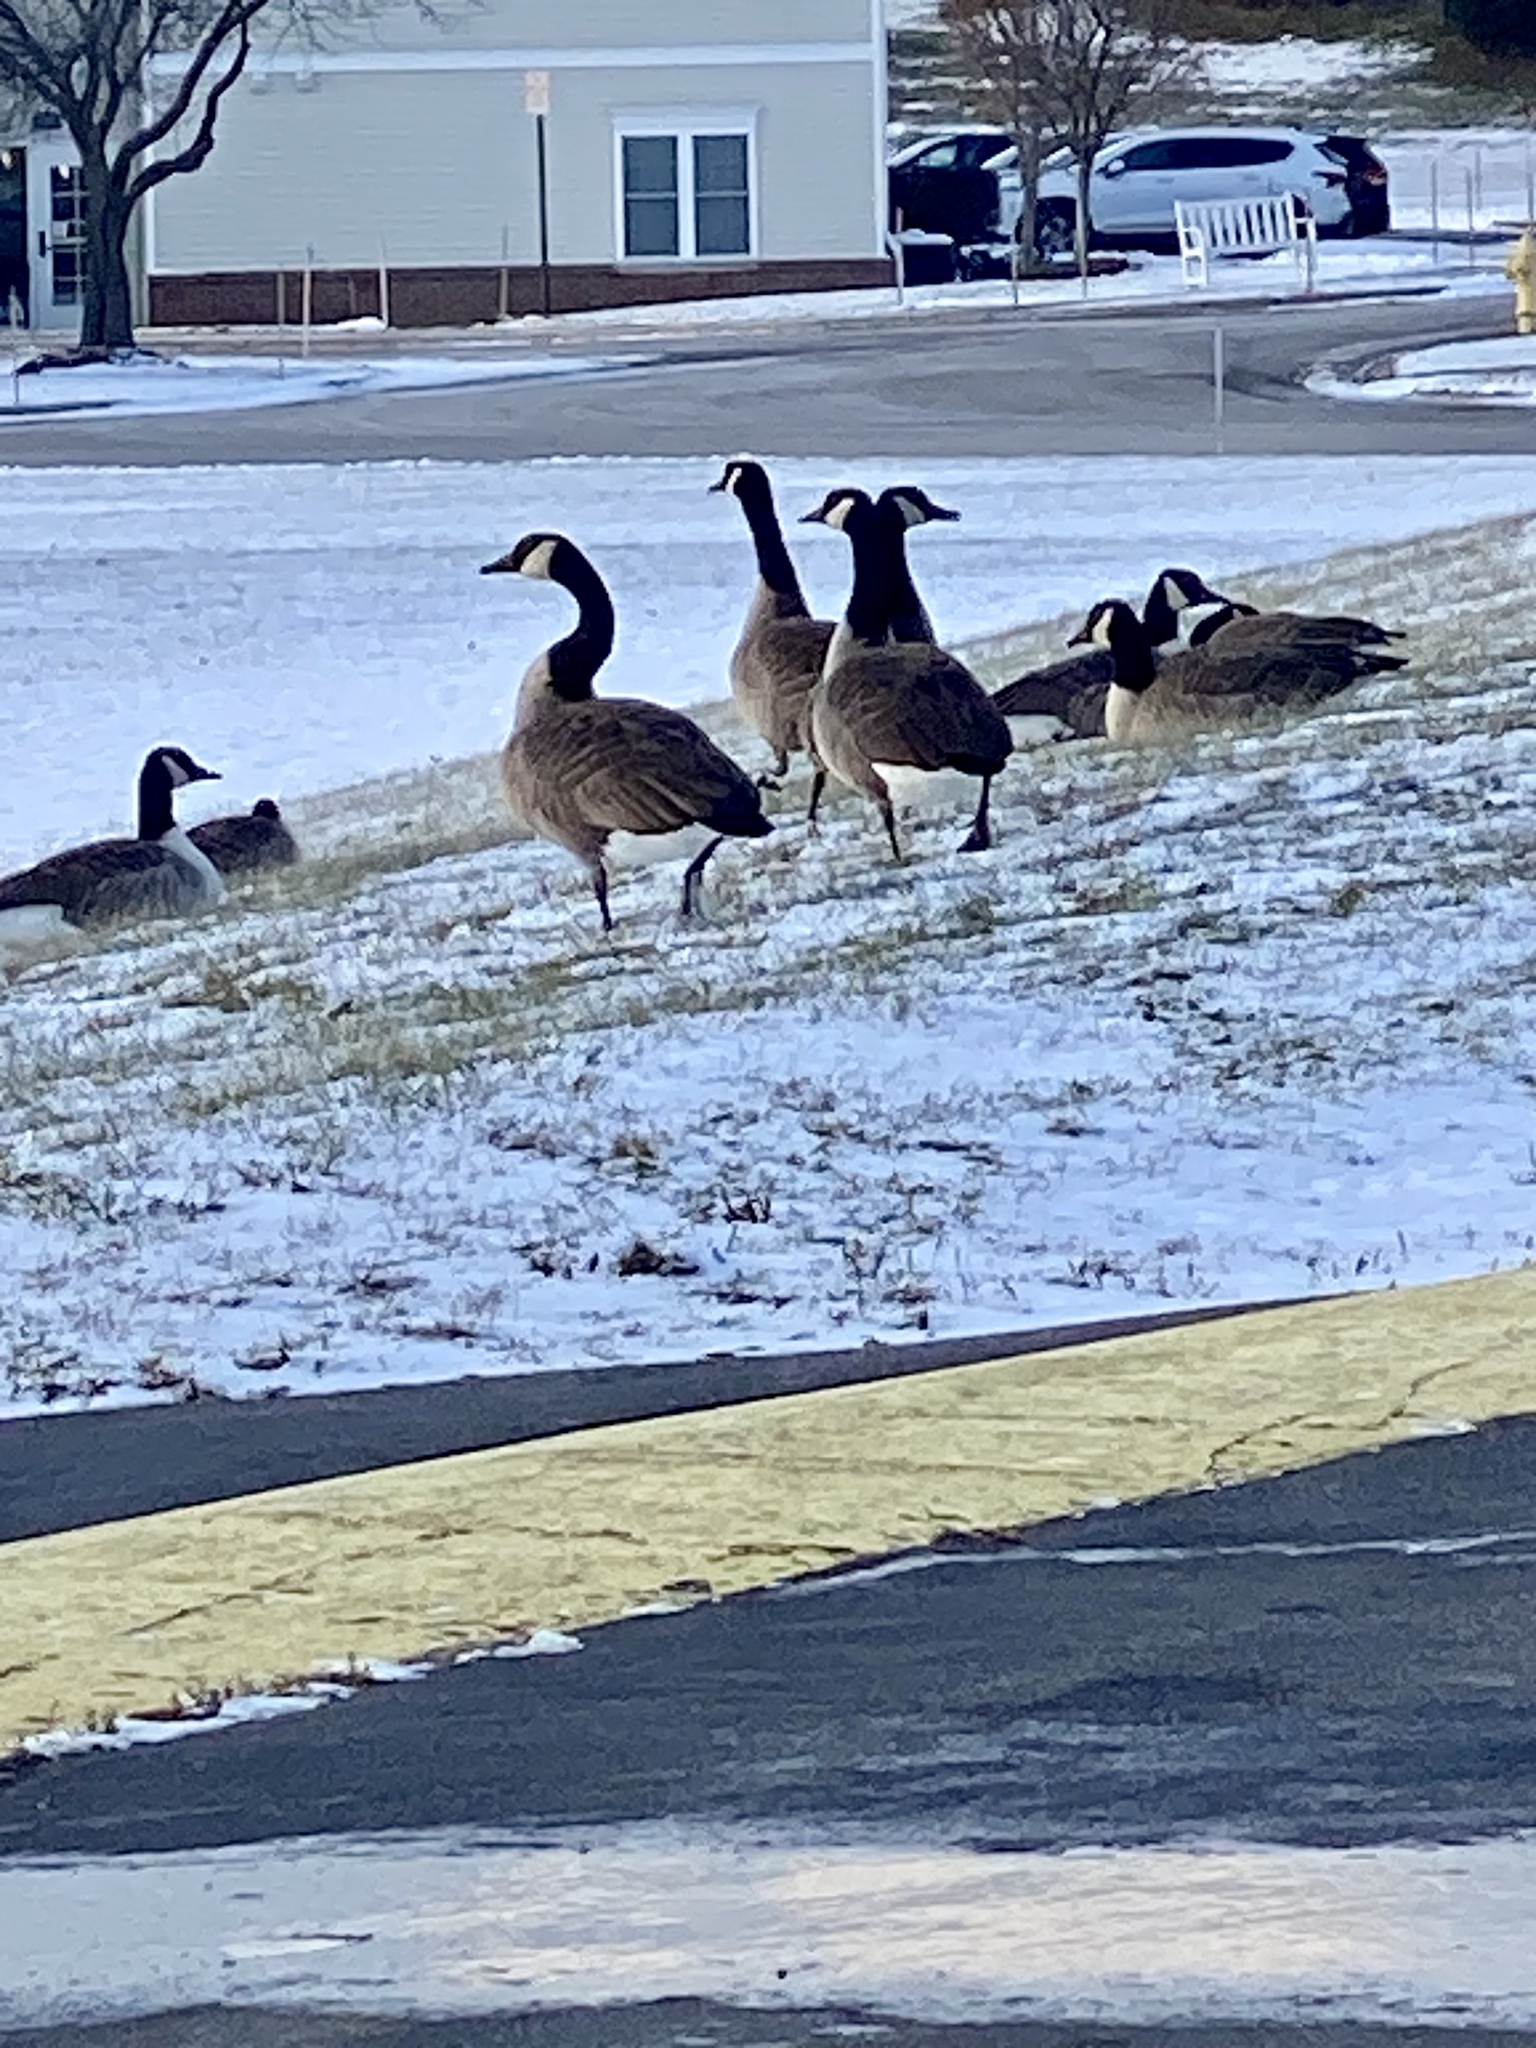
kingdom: Animalia
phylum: Chordata
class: Aves
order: Anseriformes
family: Anatidae
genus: Branta
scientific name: Branta canadensis
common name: Canada goose
